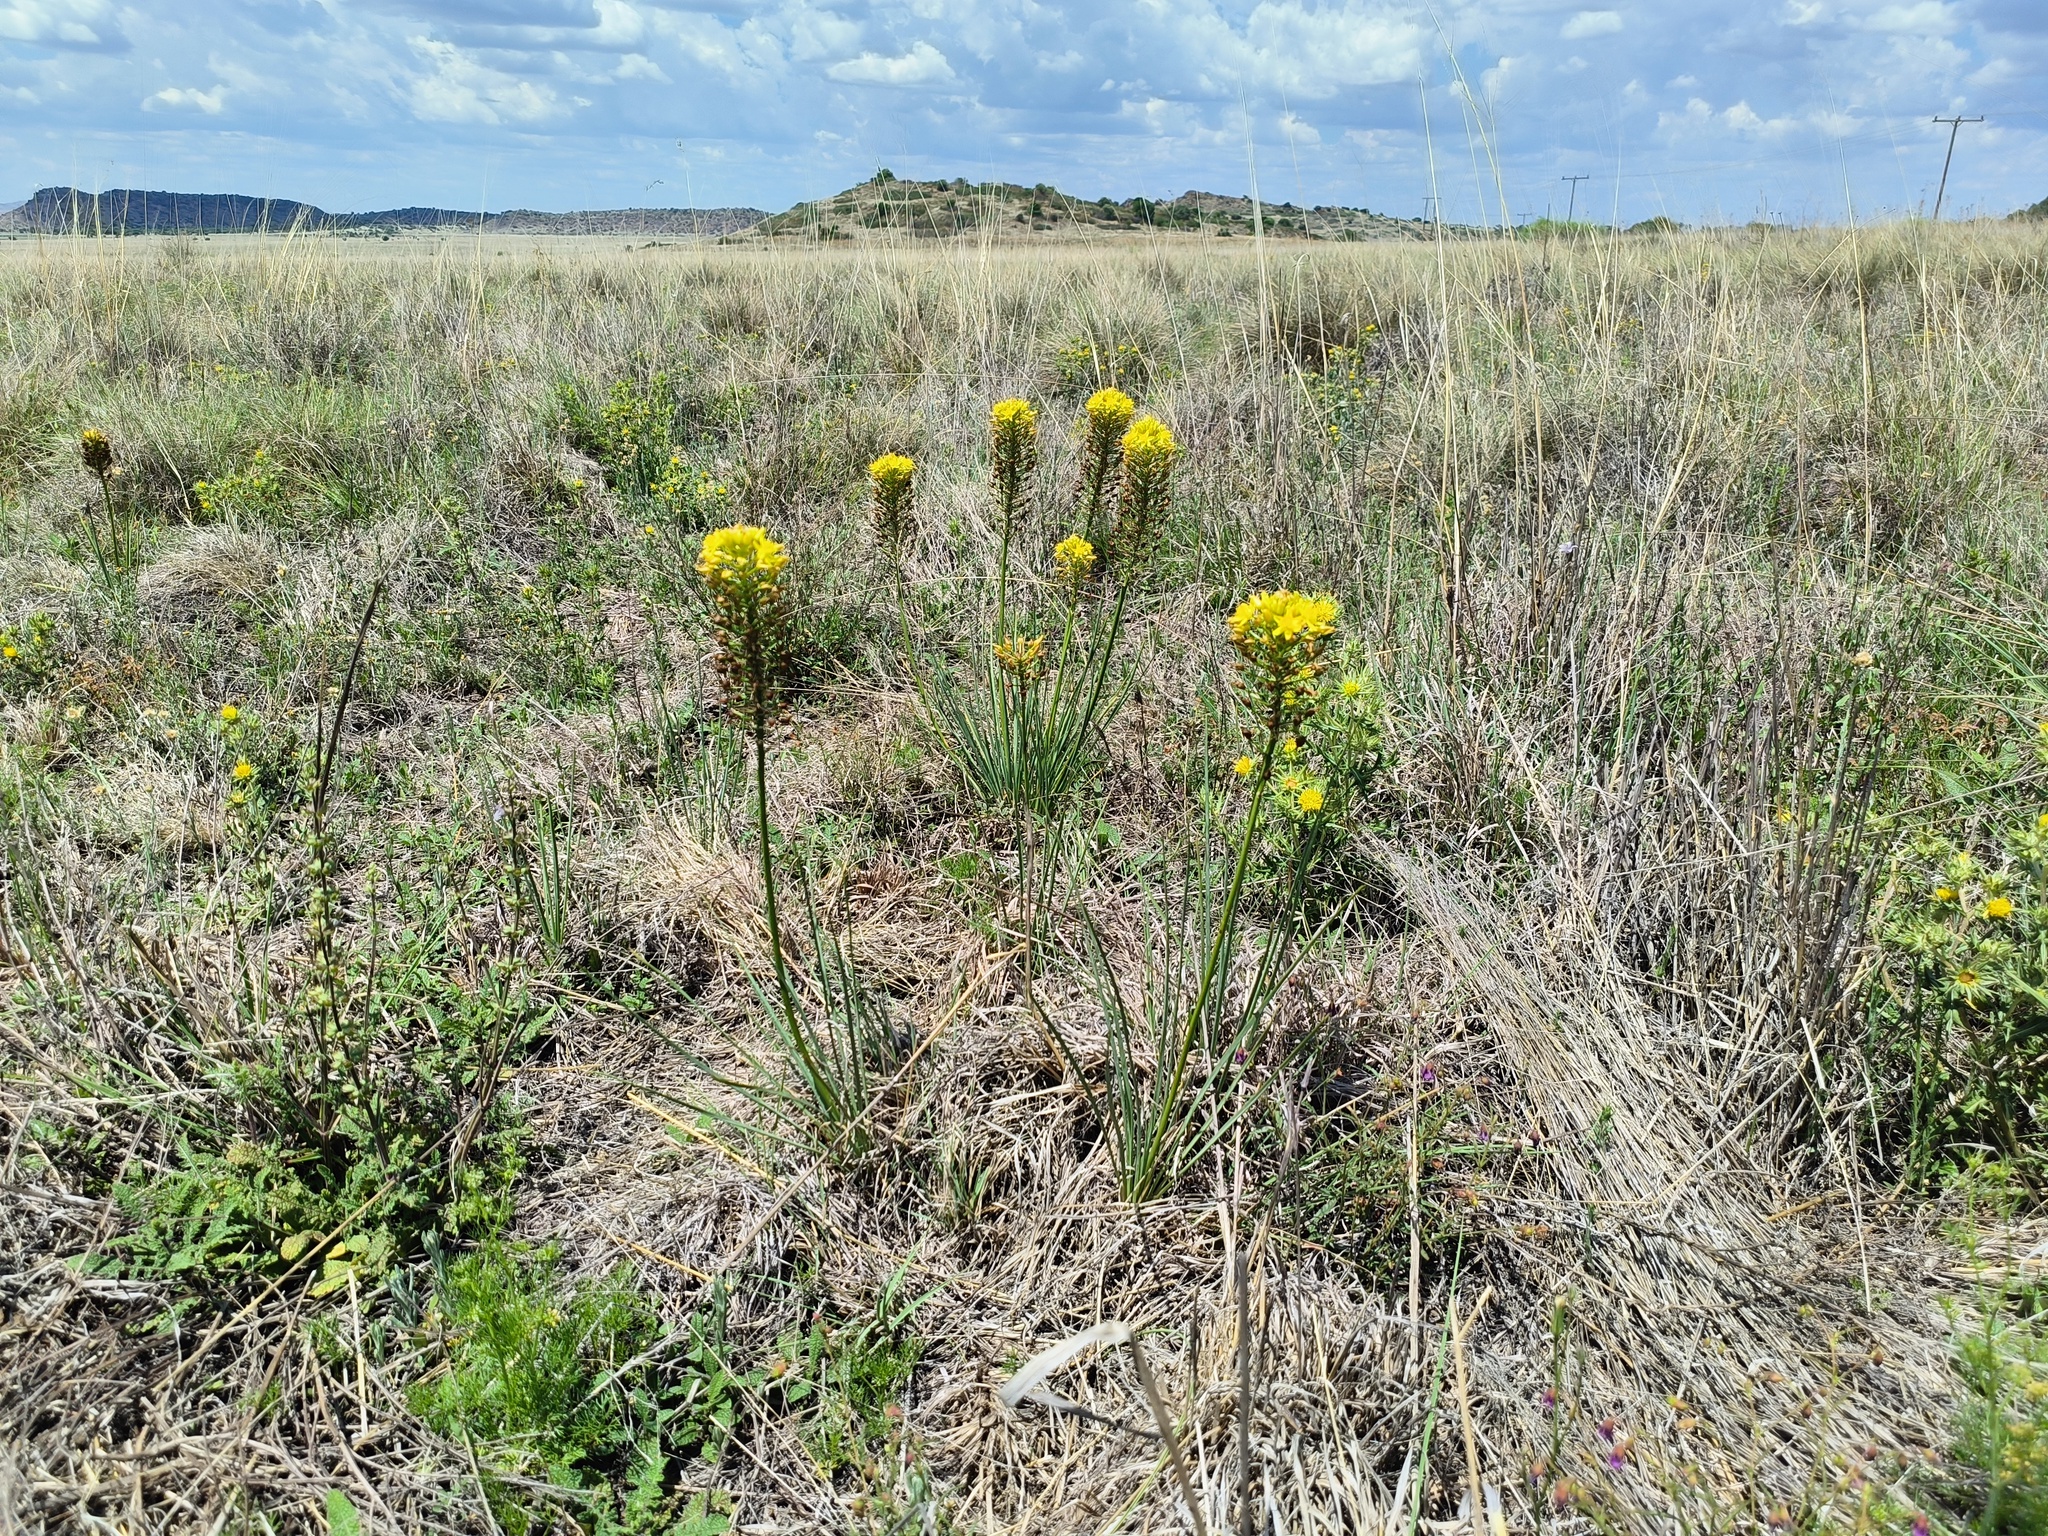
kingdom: Plantae
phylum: Tracheophyta
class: Liliopsida
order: Asparagales
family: Asphodelaceae
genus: Bulbine
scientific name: Bulbine abyssinica
